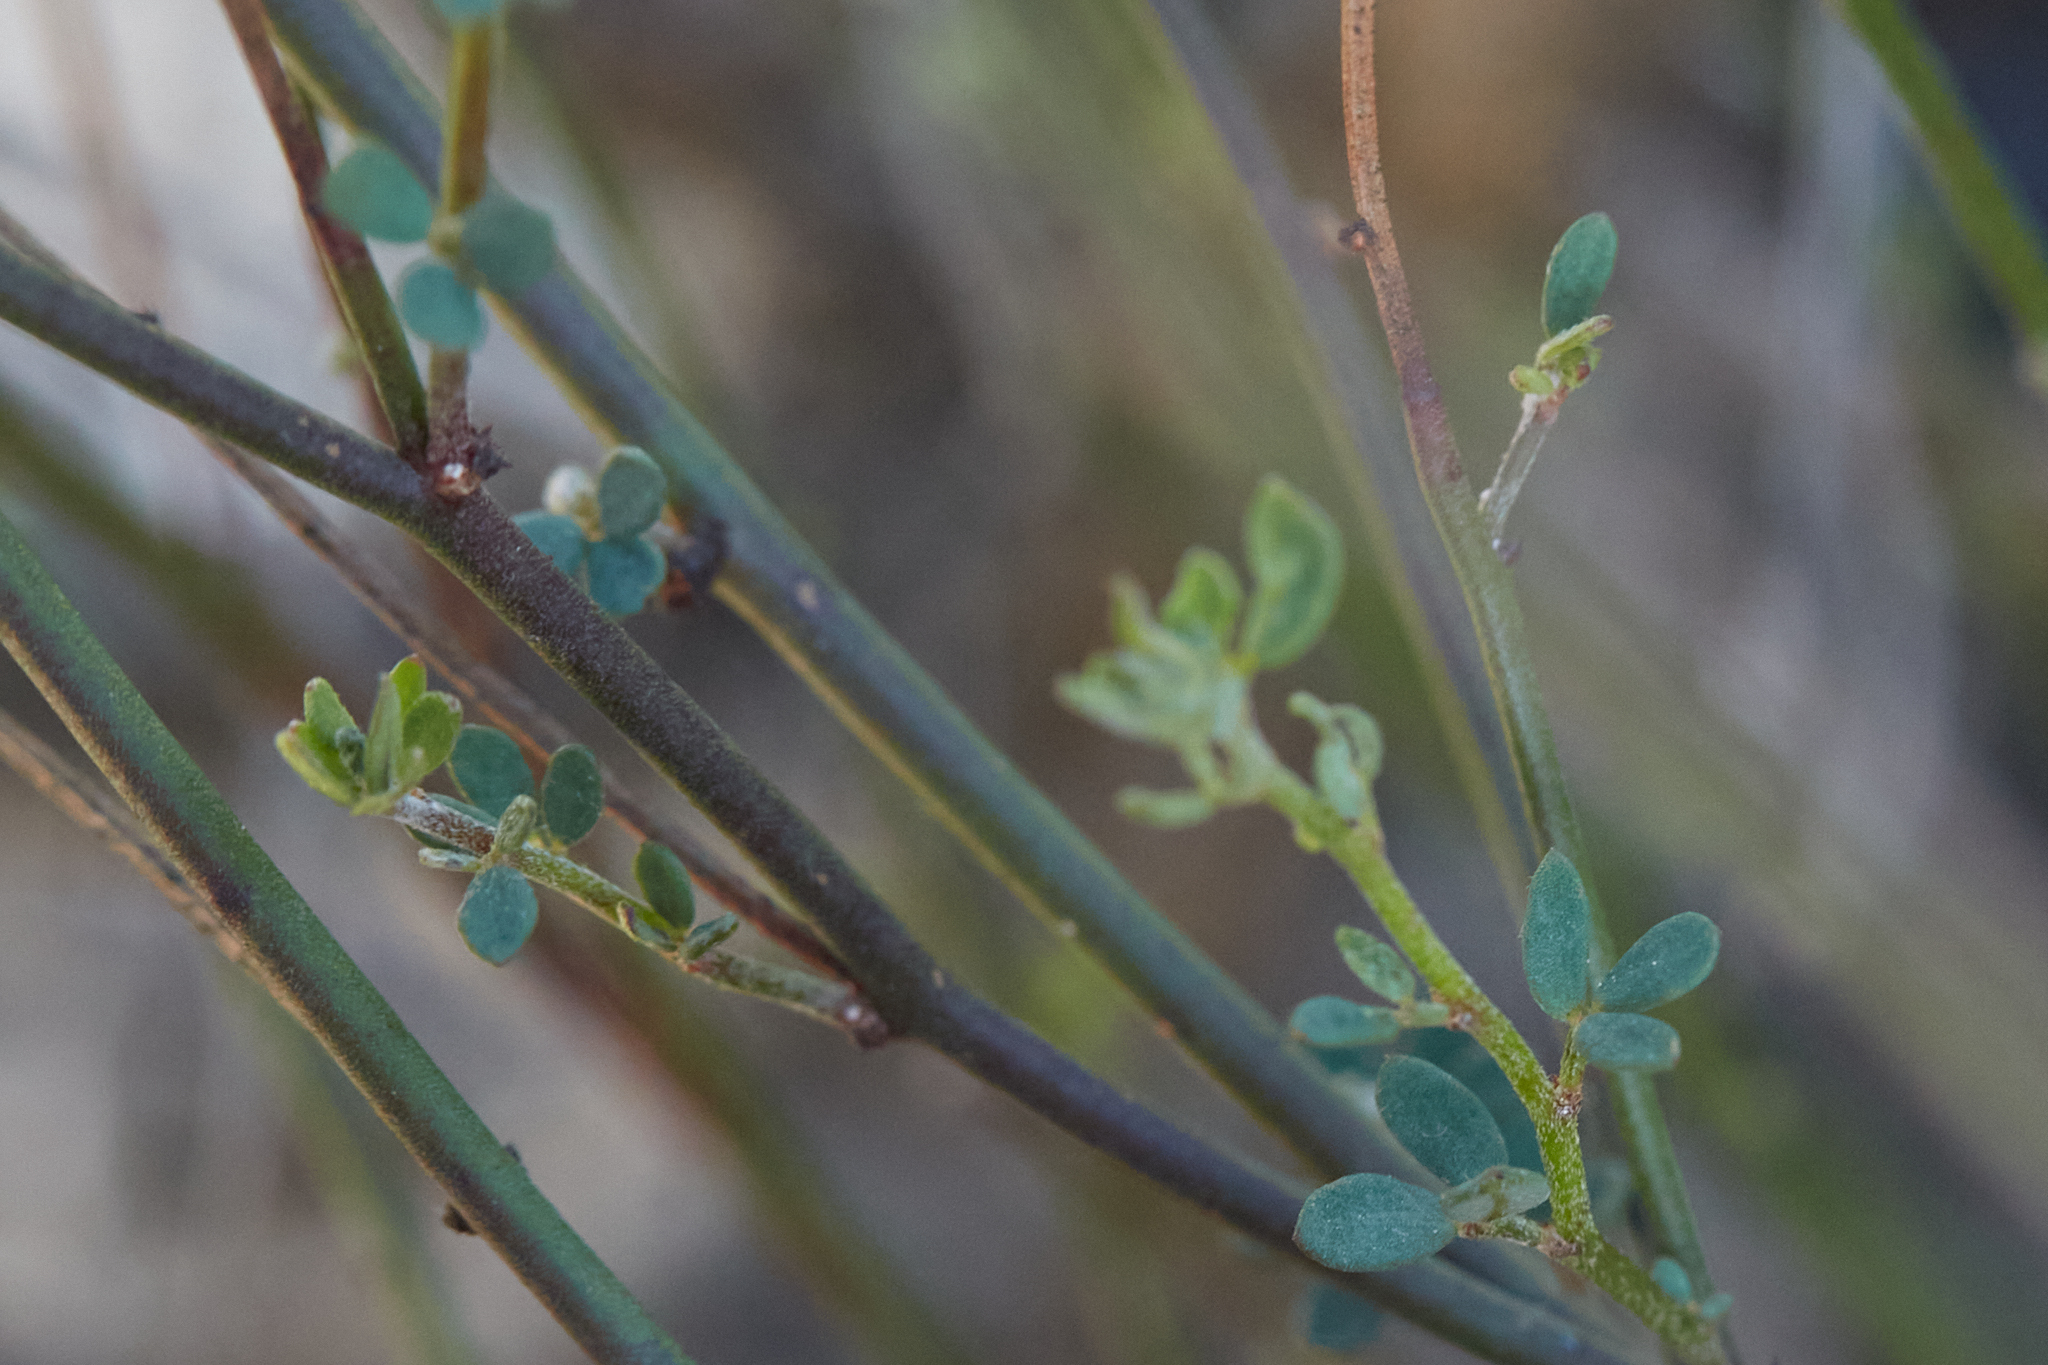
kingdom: Plantae
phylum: Tracheophyta
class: Magnoliopsida
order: Malvales
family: Cistaceae
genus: Crocanthemum
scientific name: Crocanthemum scoparium
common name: Broom-rose
